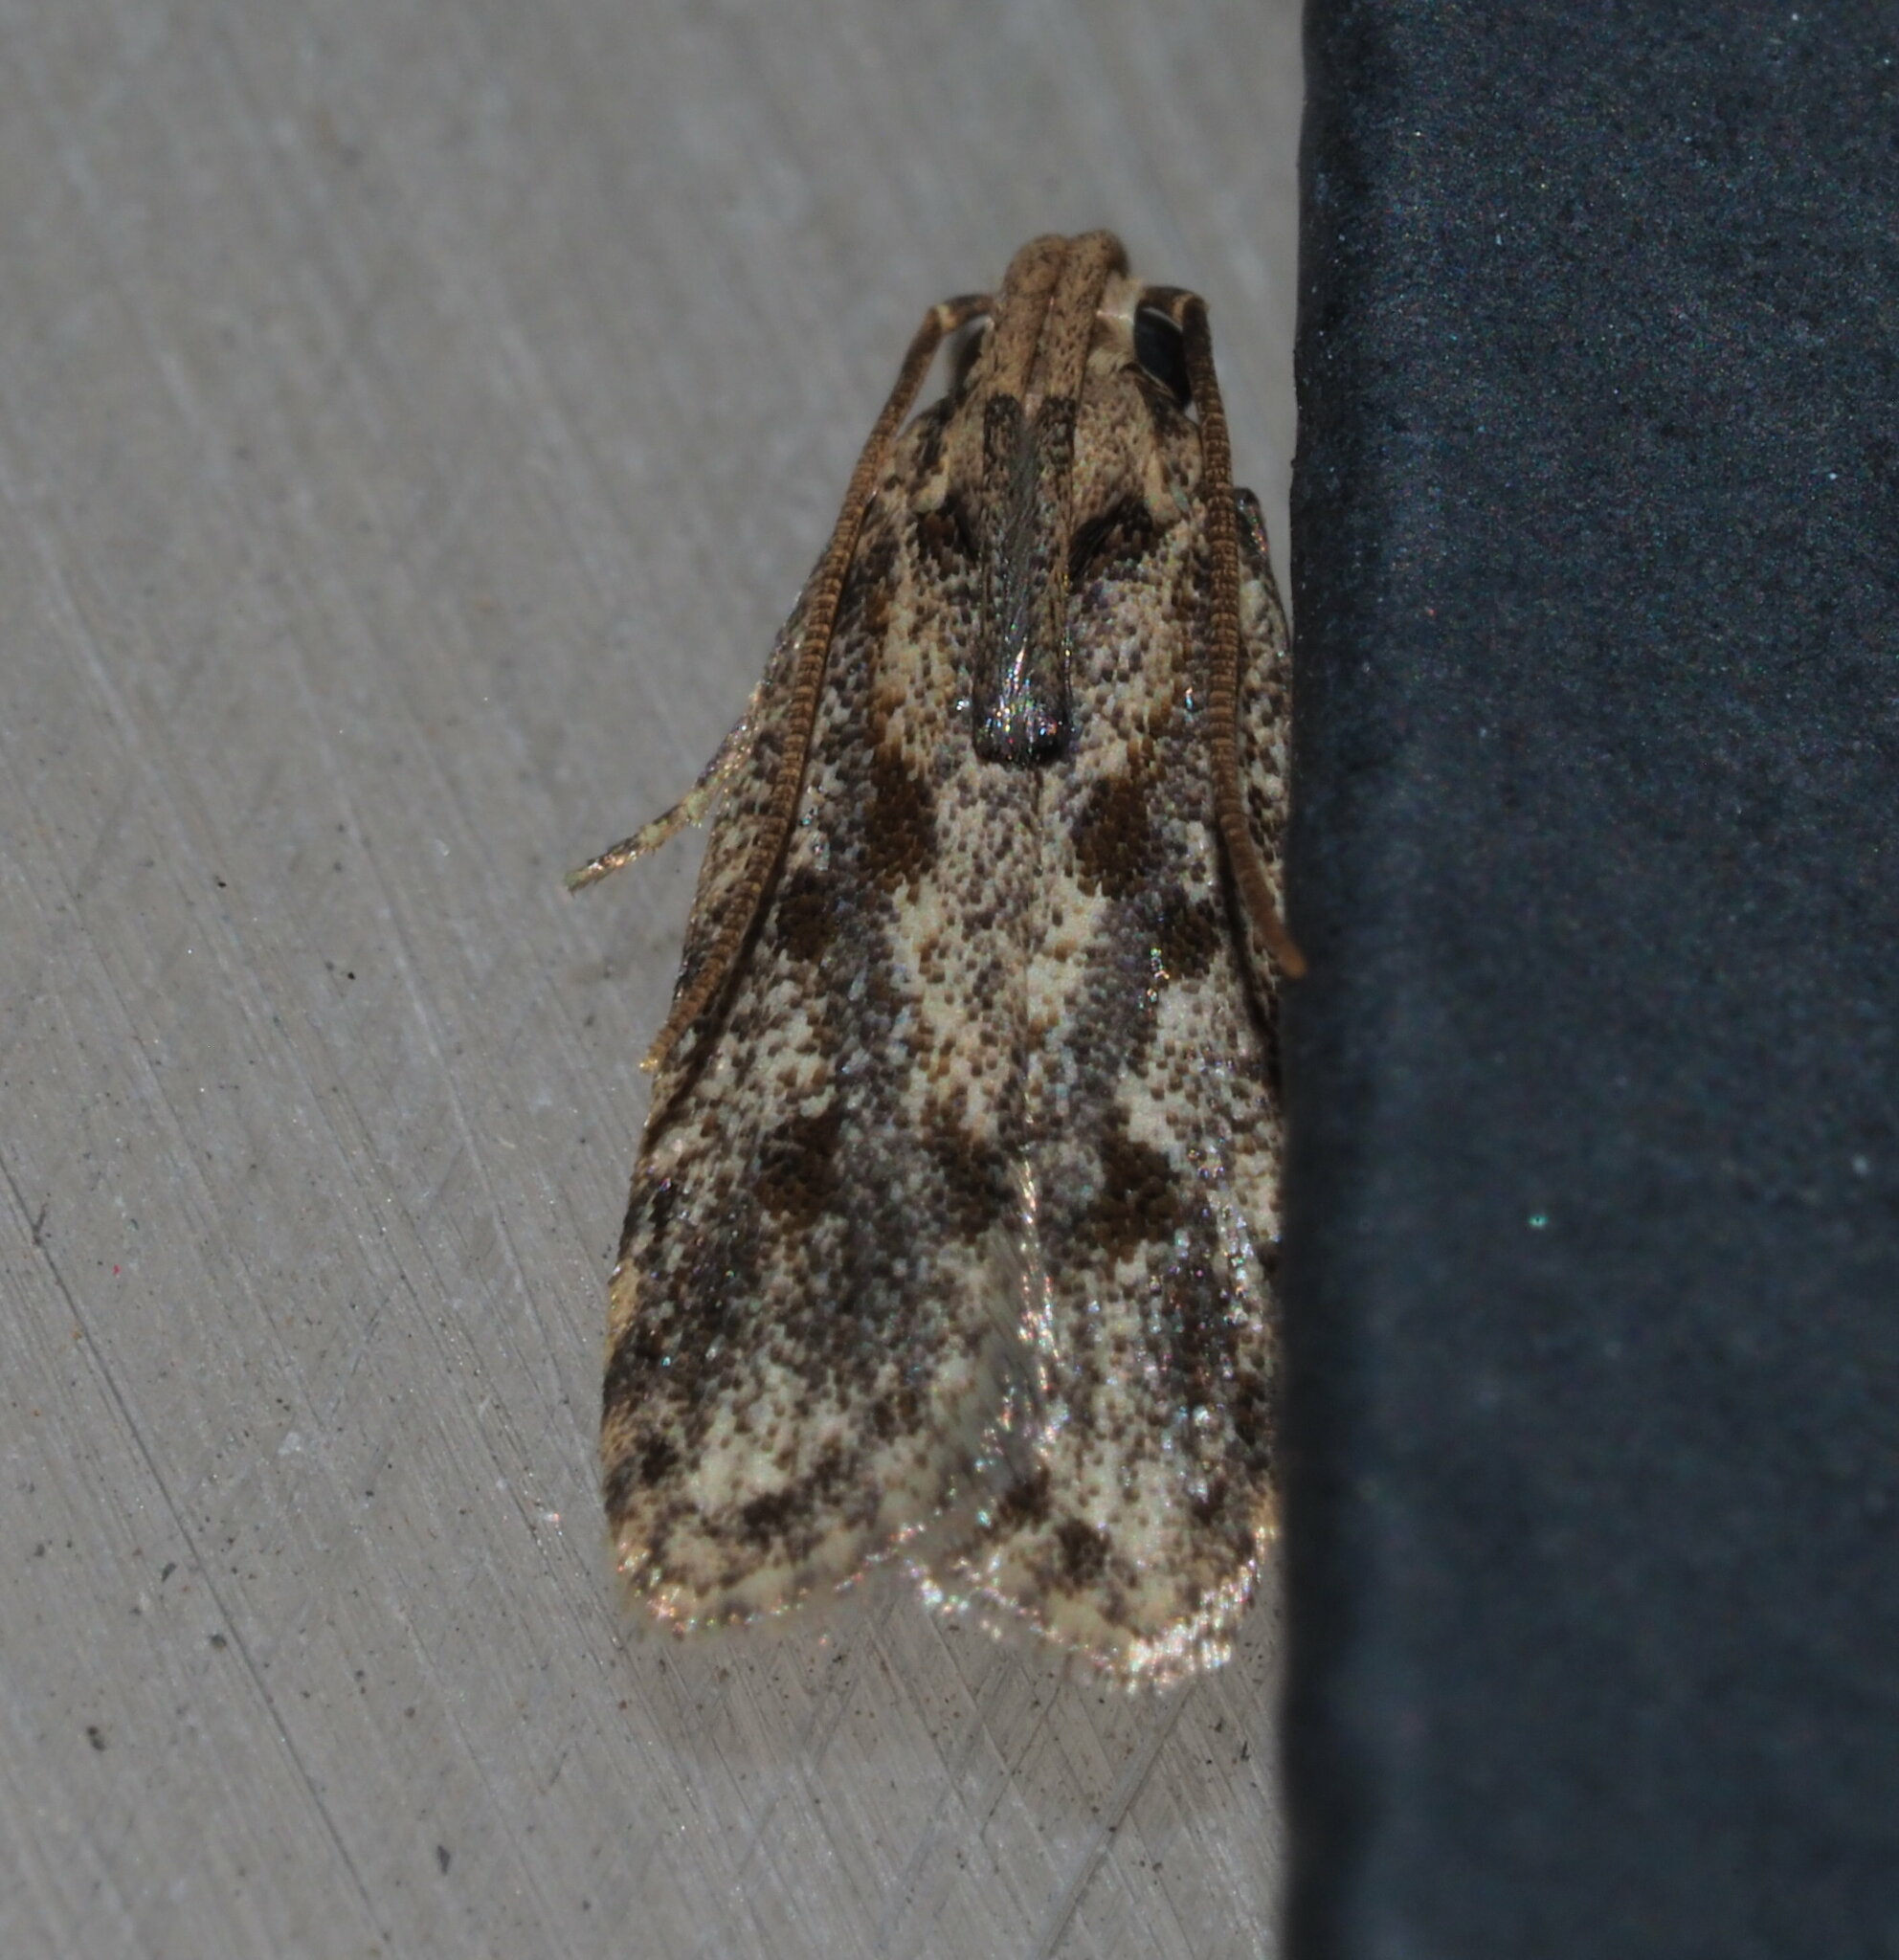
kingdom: Animalia
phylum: Arthropoda
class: Insecta
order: Lepidoptera
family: Autostichidae
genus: Stoeberhinus
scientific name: Stoeberhinus testaceus
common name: Moth
